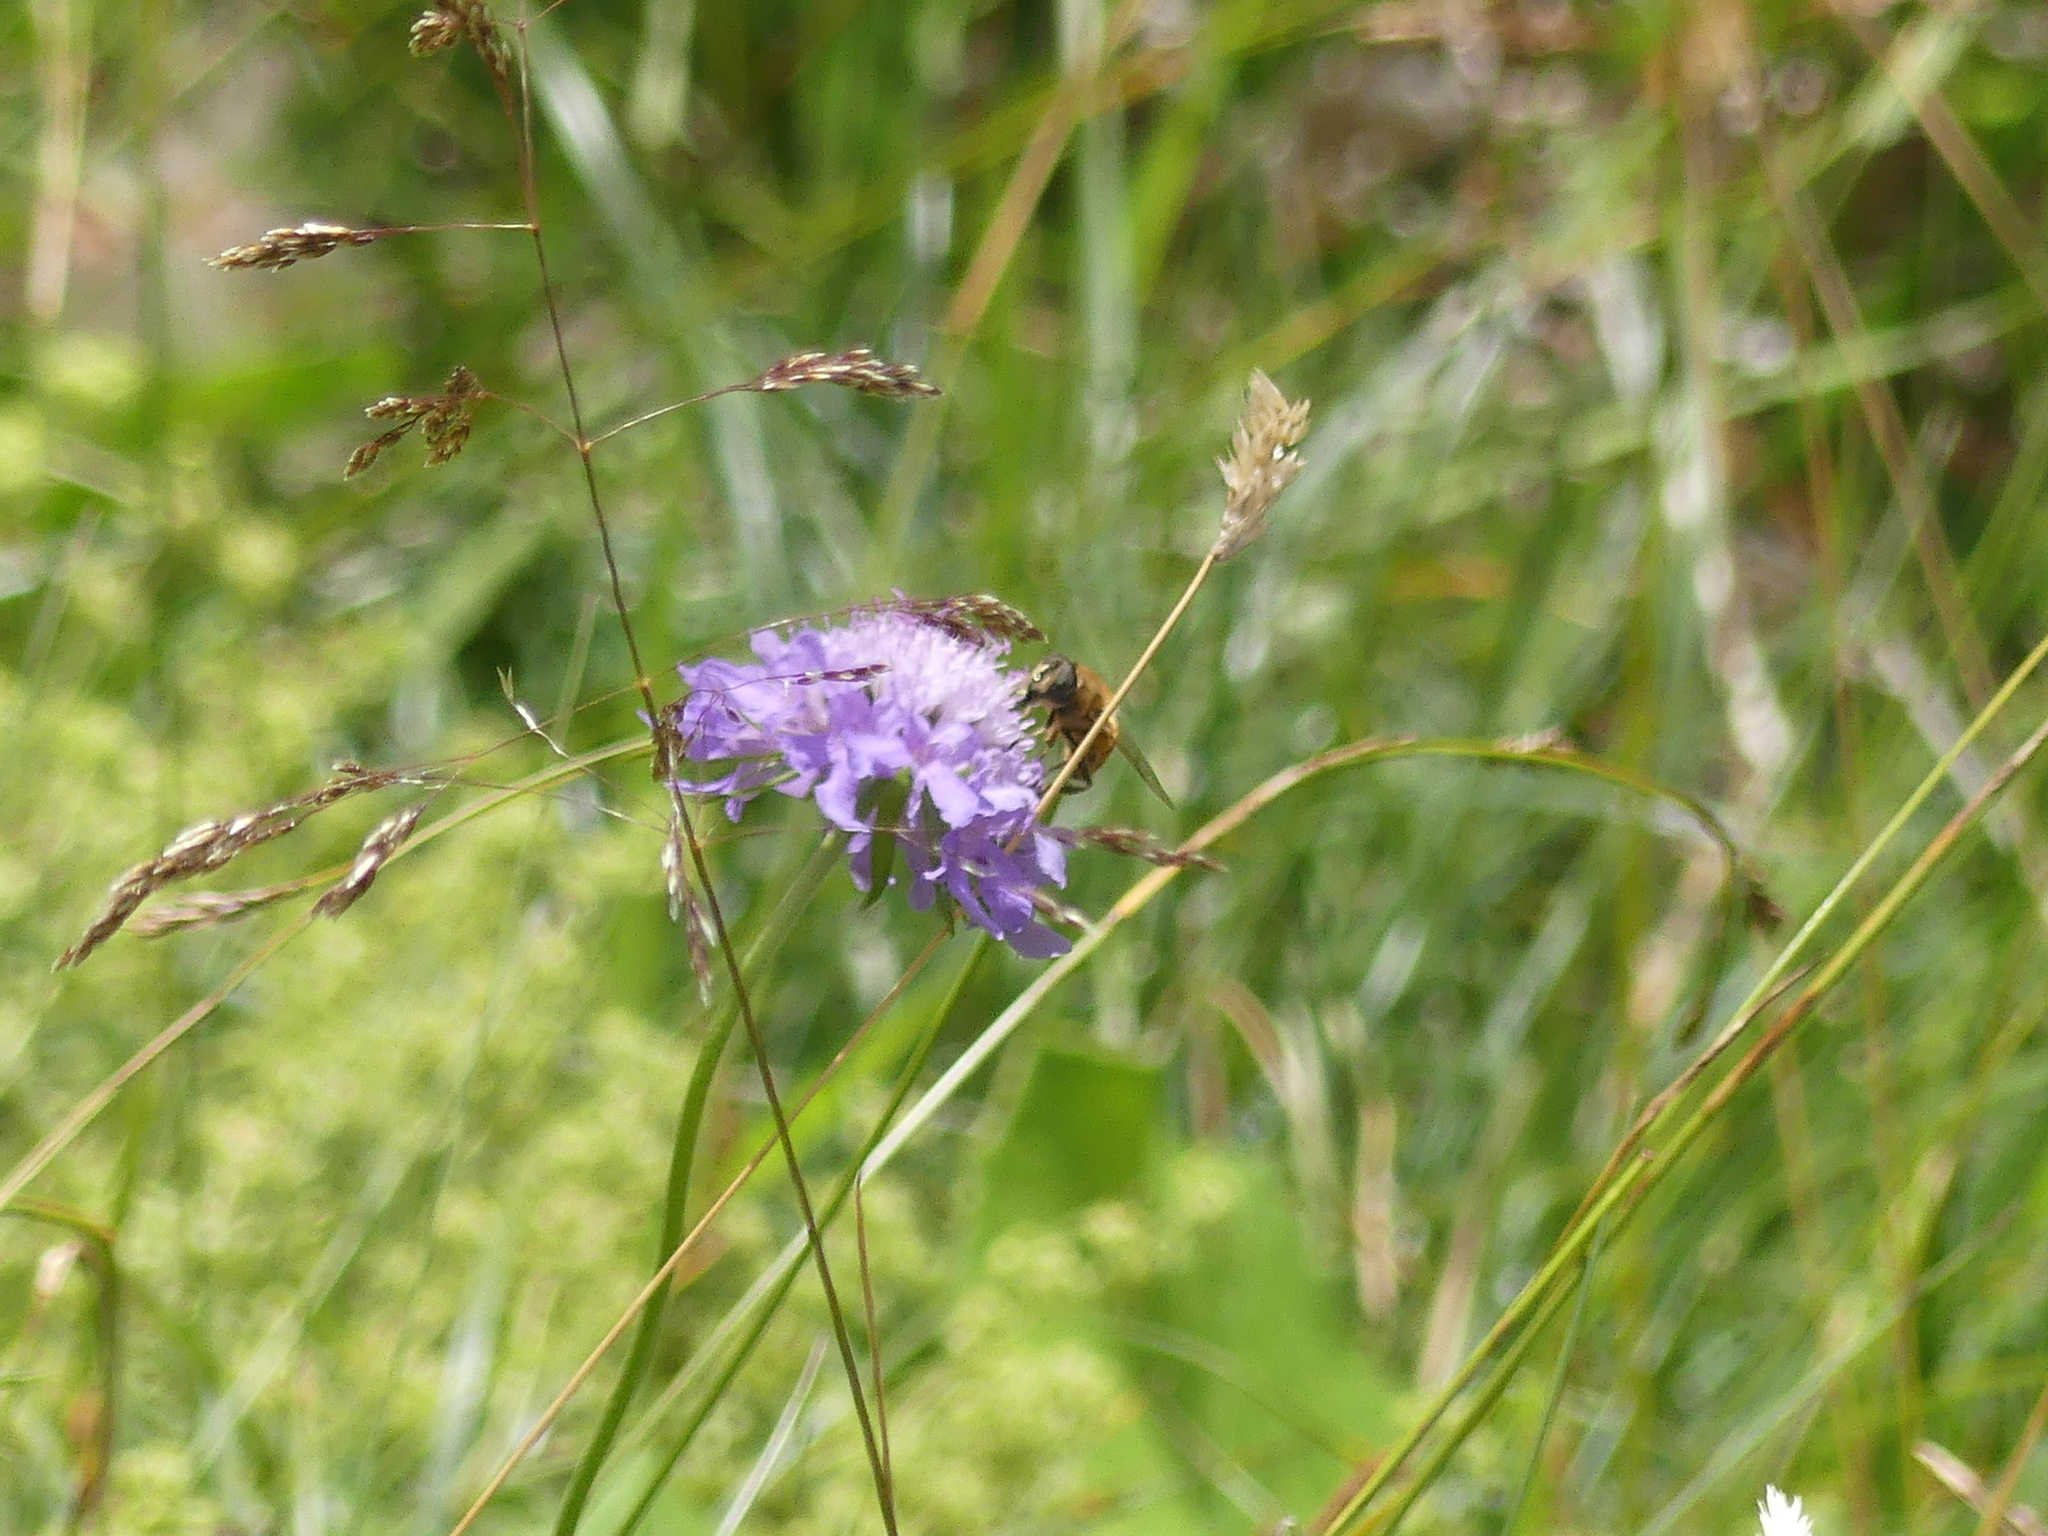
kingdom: Animalia
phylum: Arthropoda
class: Insecta
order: Diptera
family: Syrphidae
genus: Eristalis
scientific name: Eristalis tenax
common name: Drone fly
